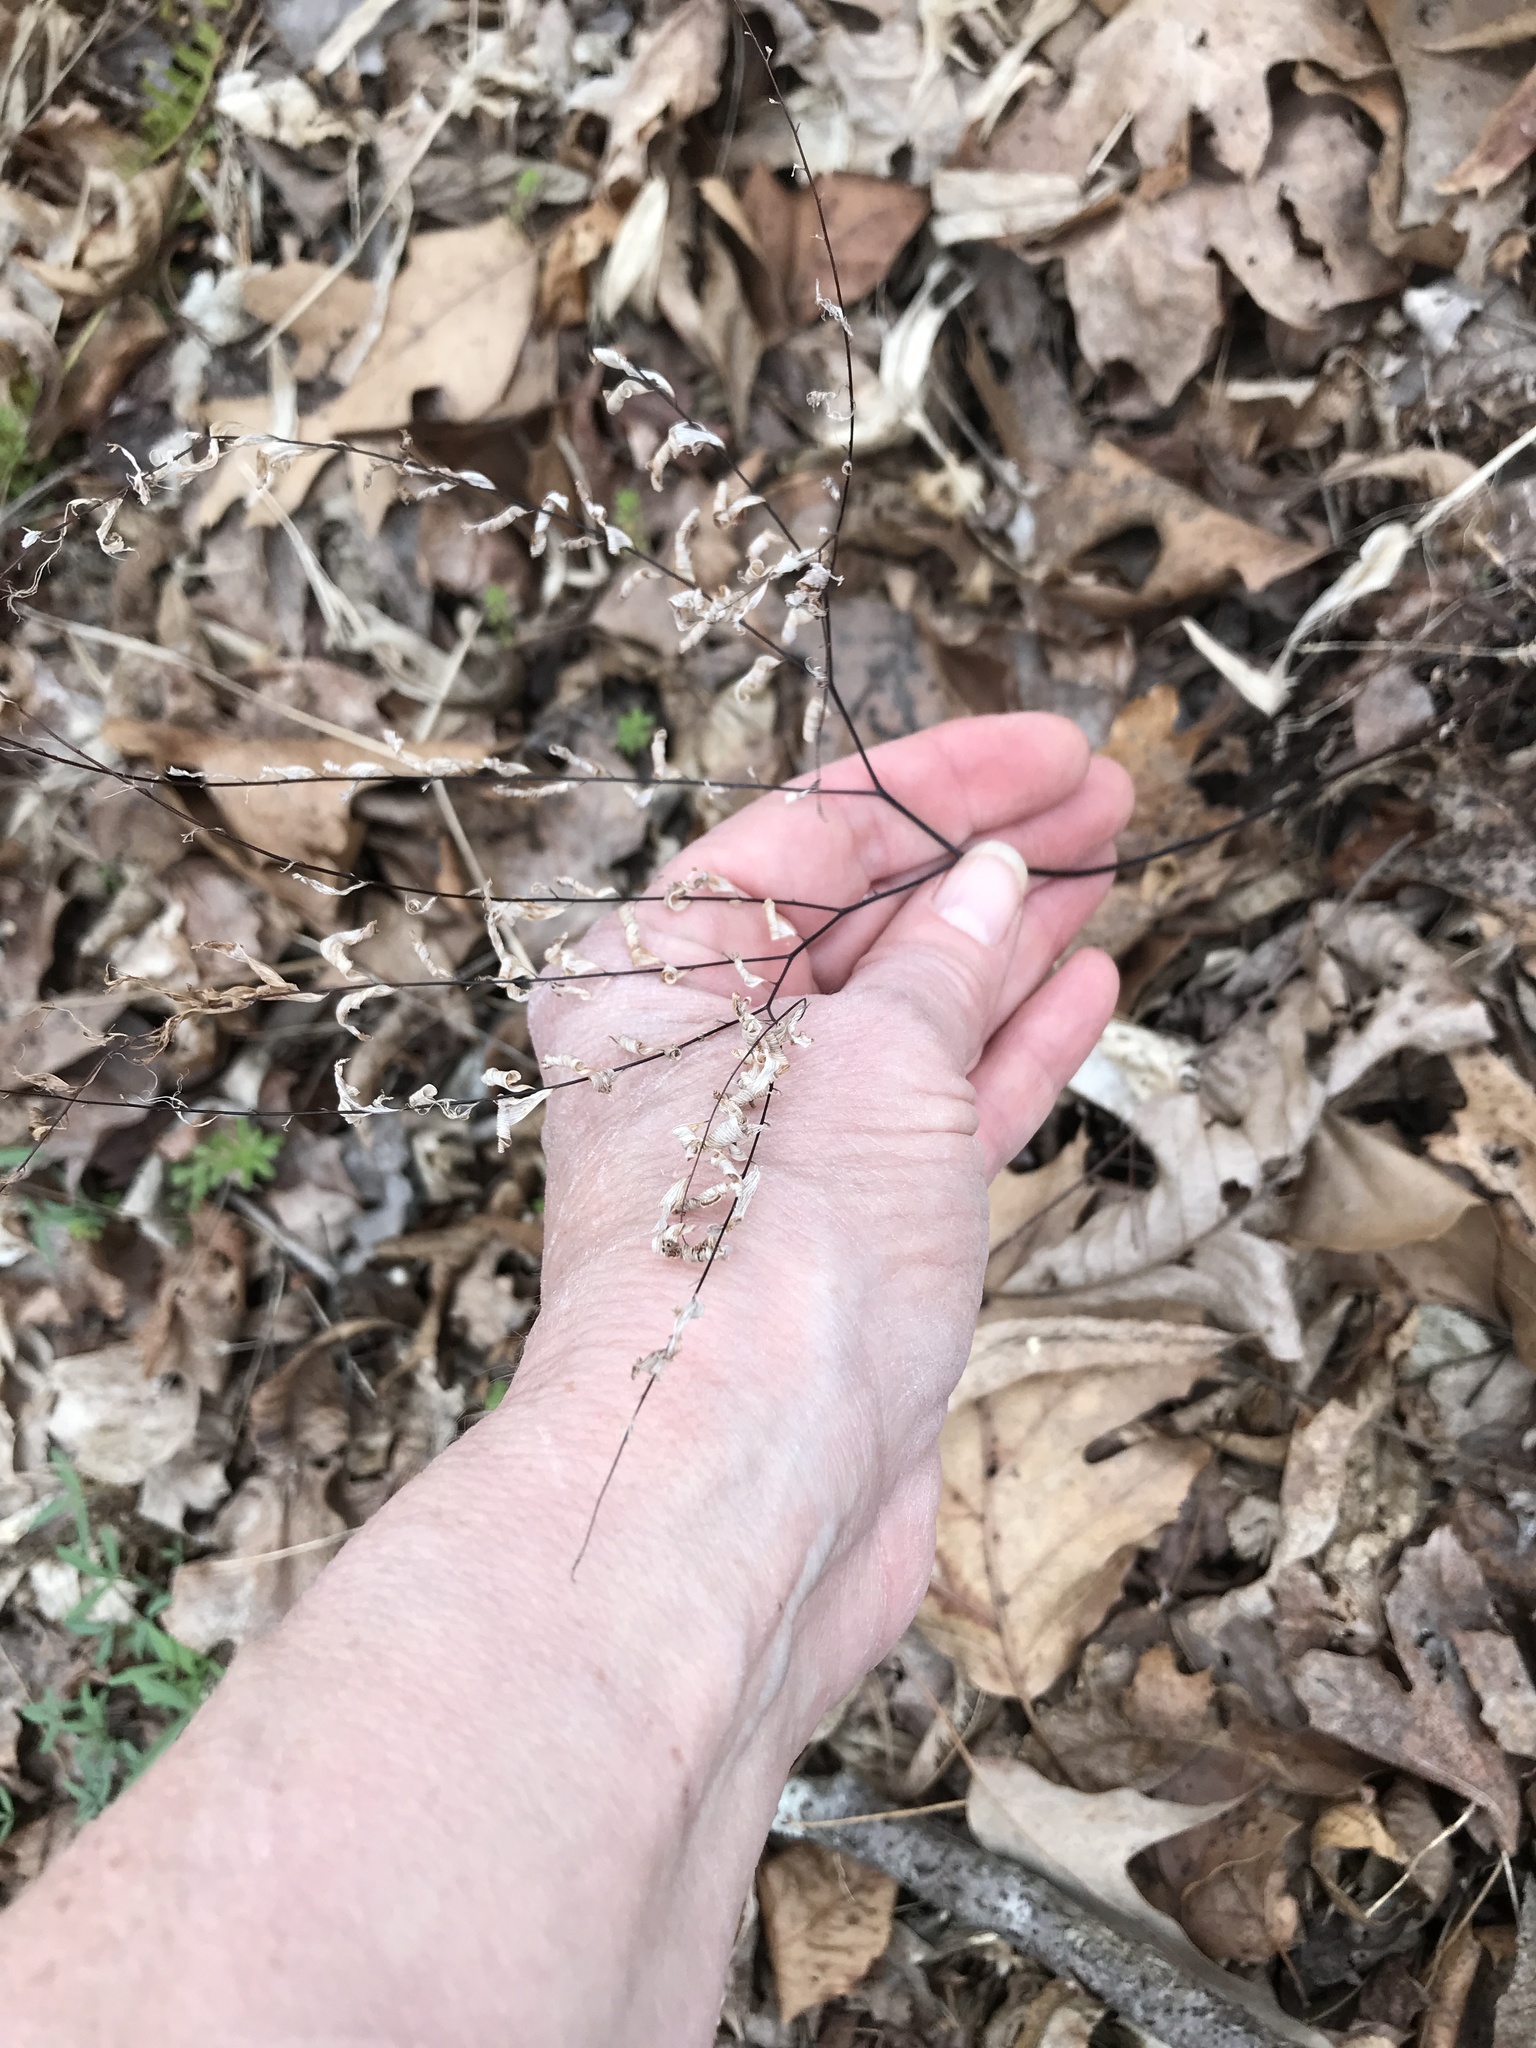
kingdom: Plantae
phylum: Tracheophyta
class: Polypodiopsida
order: Polypodiales
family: Pteridaceae
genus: Adiantum
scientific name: Adiantum pedatum
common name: Five-finger fern
